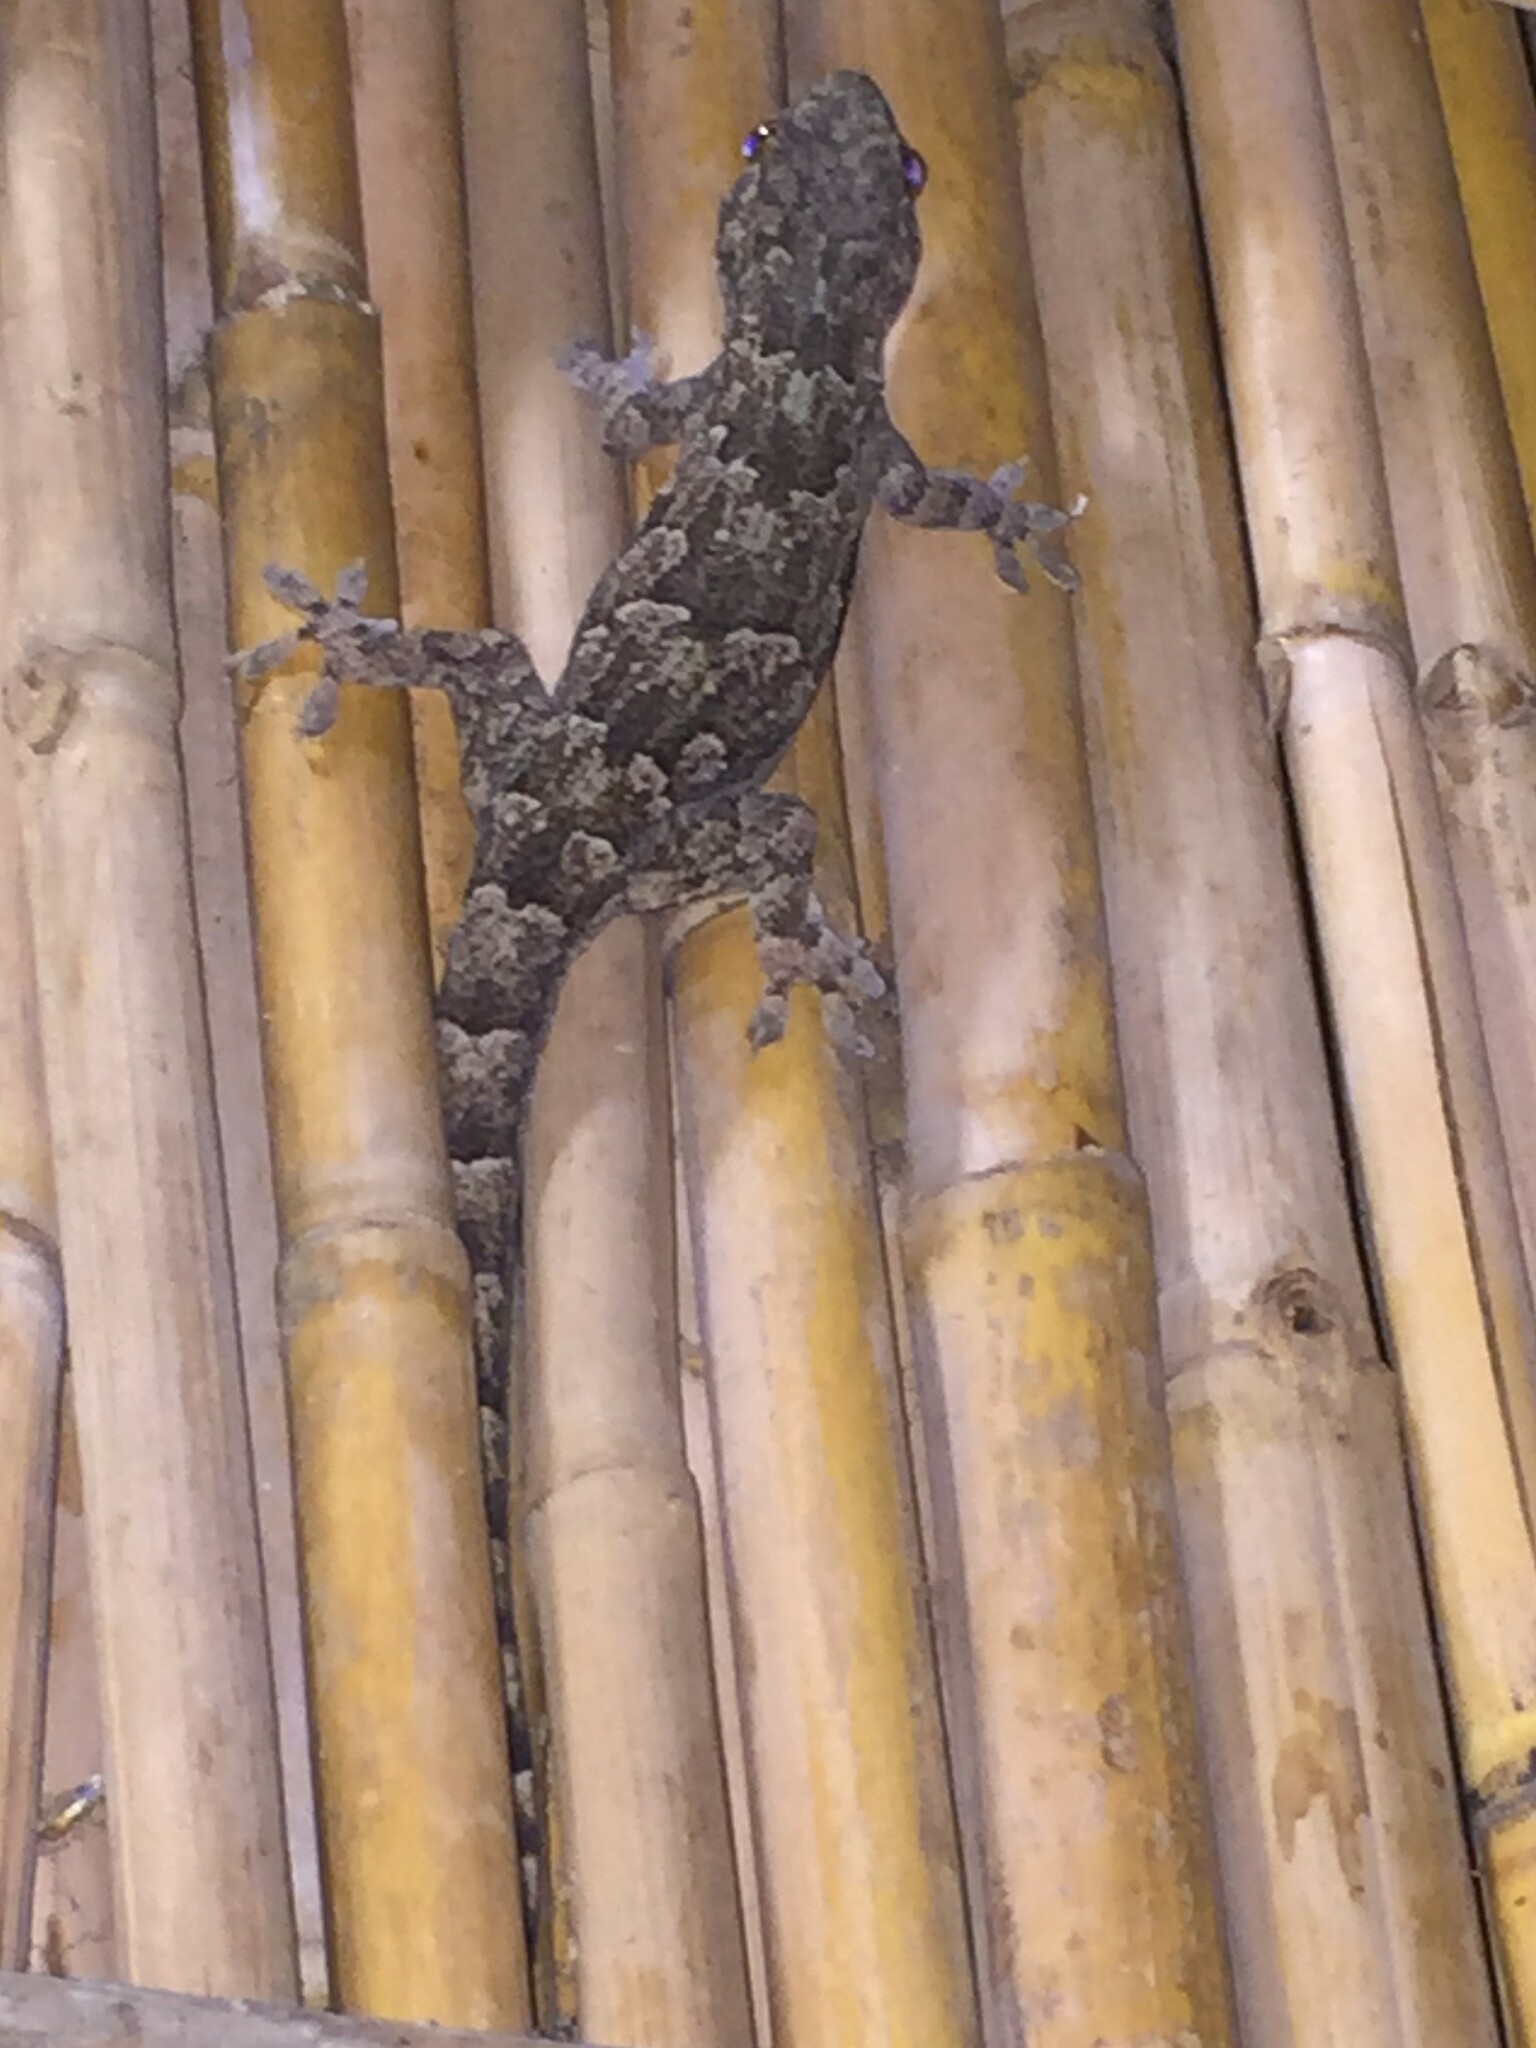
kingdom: Animalia
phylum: Chordata
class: Squamata
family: Gekkonidae
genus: Hemidactylus
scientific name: Hemidactylus mabouia
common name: House gecko
